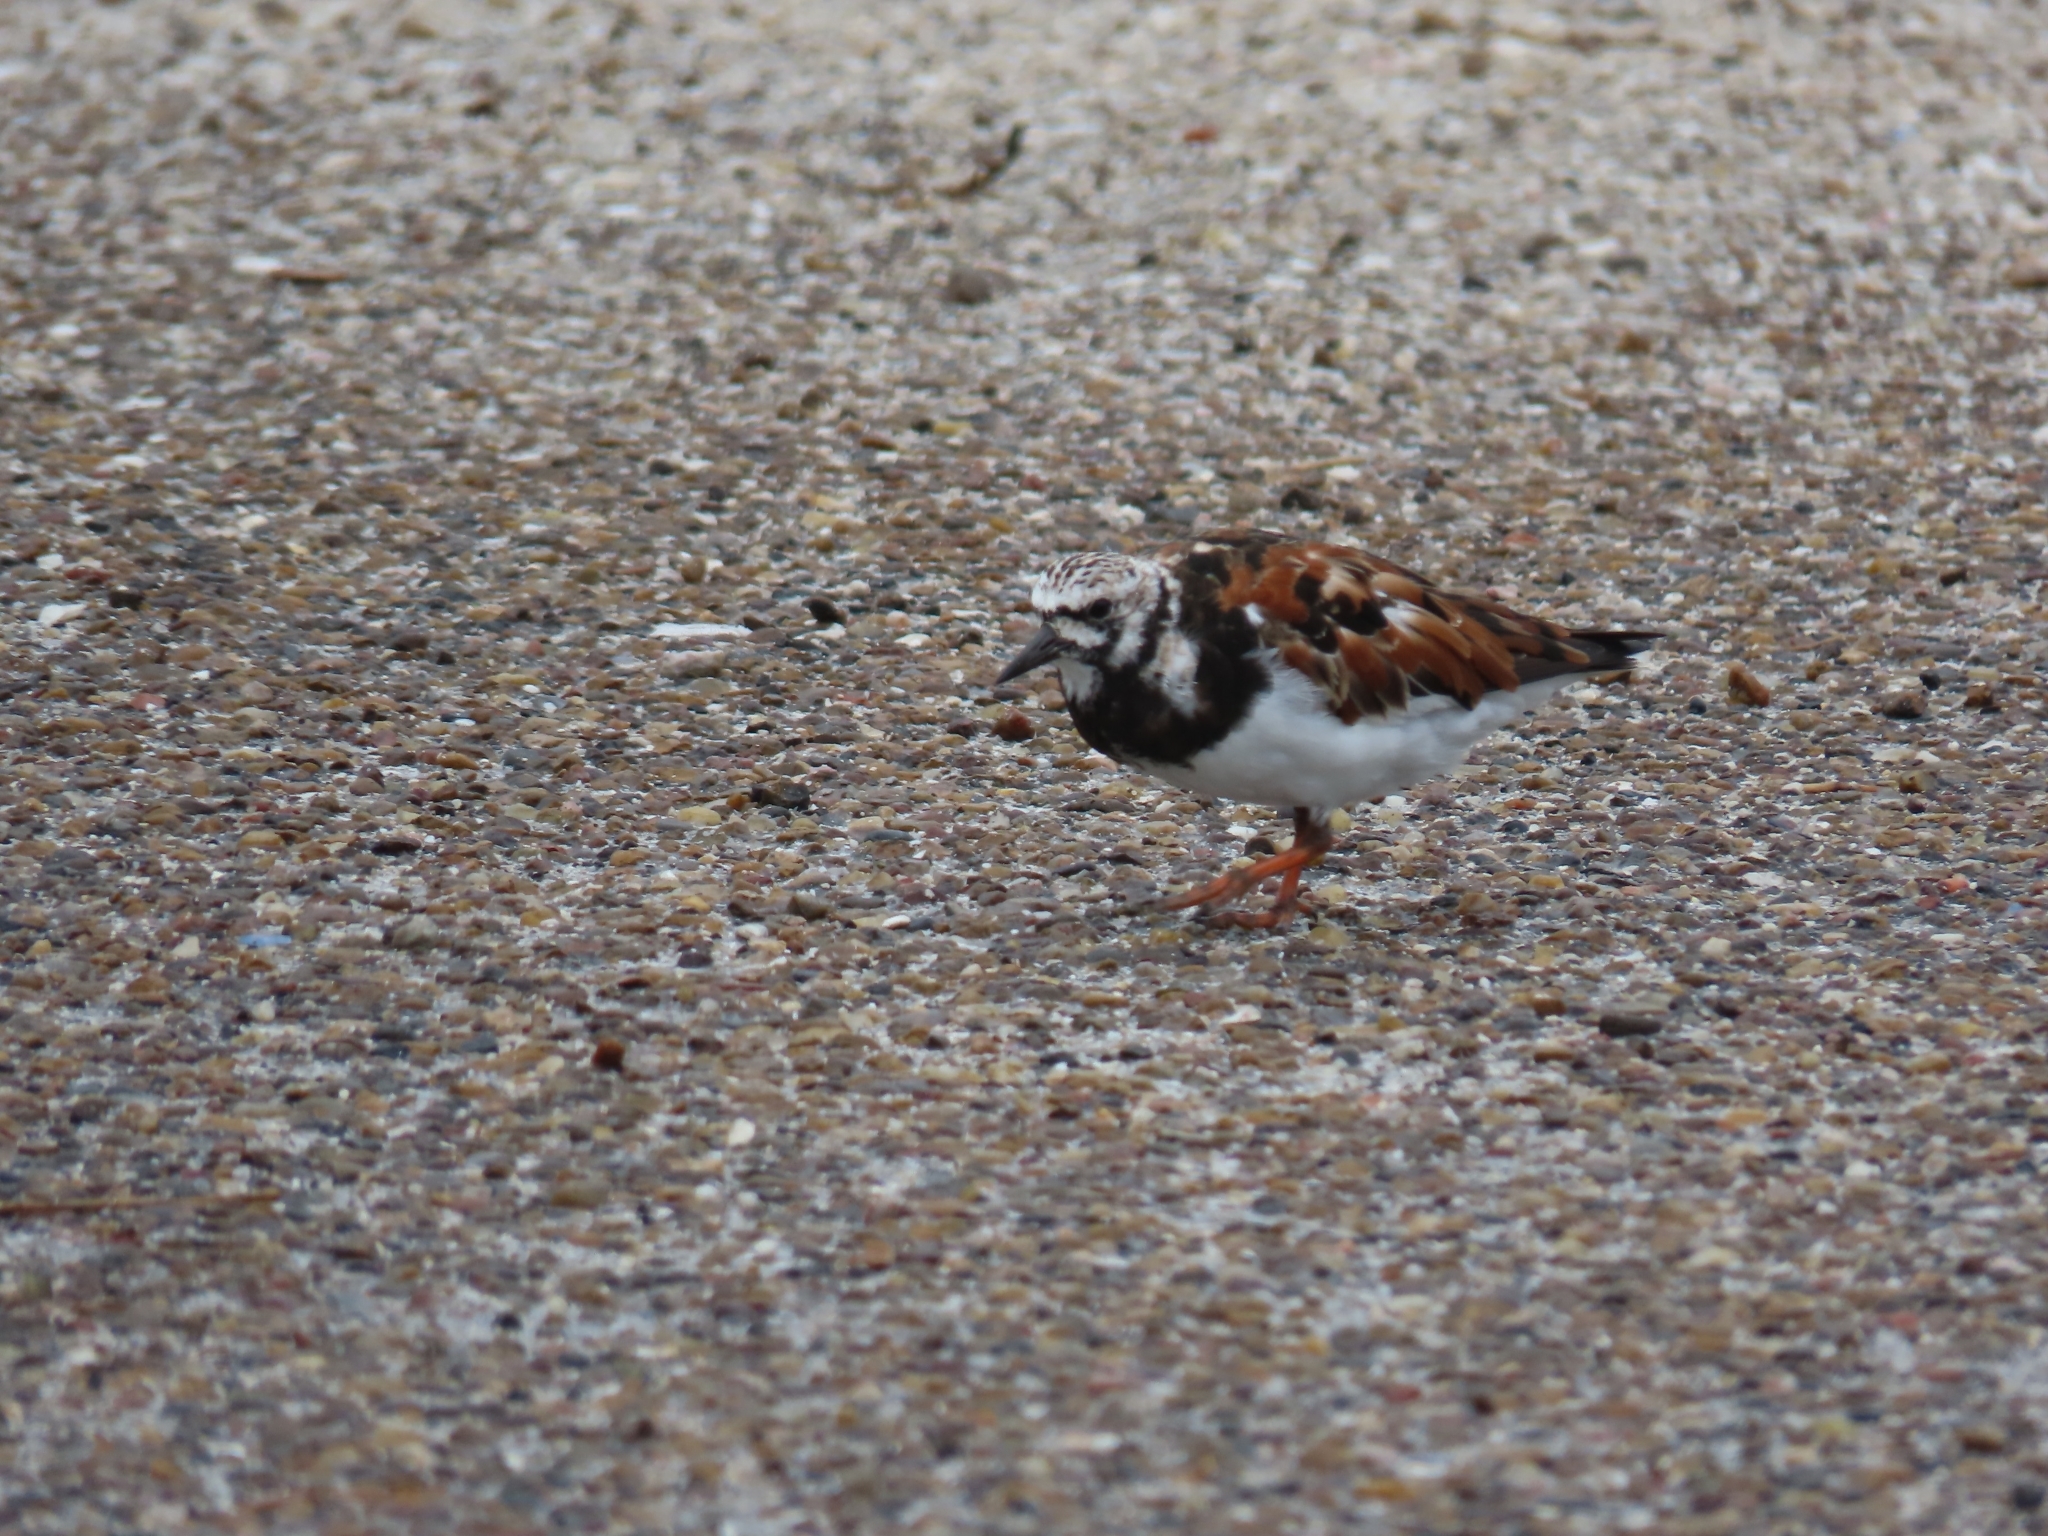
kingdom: Animalia
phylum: Chordata
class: Aves
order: Charadriiformes
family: Scolopacidae
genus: Arenaria
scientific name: Arenaria interpres
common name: Ruddy turnstone
